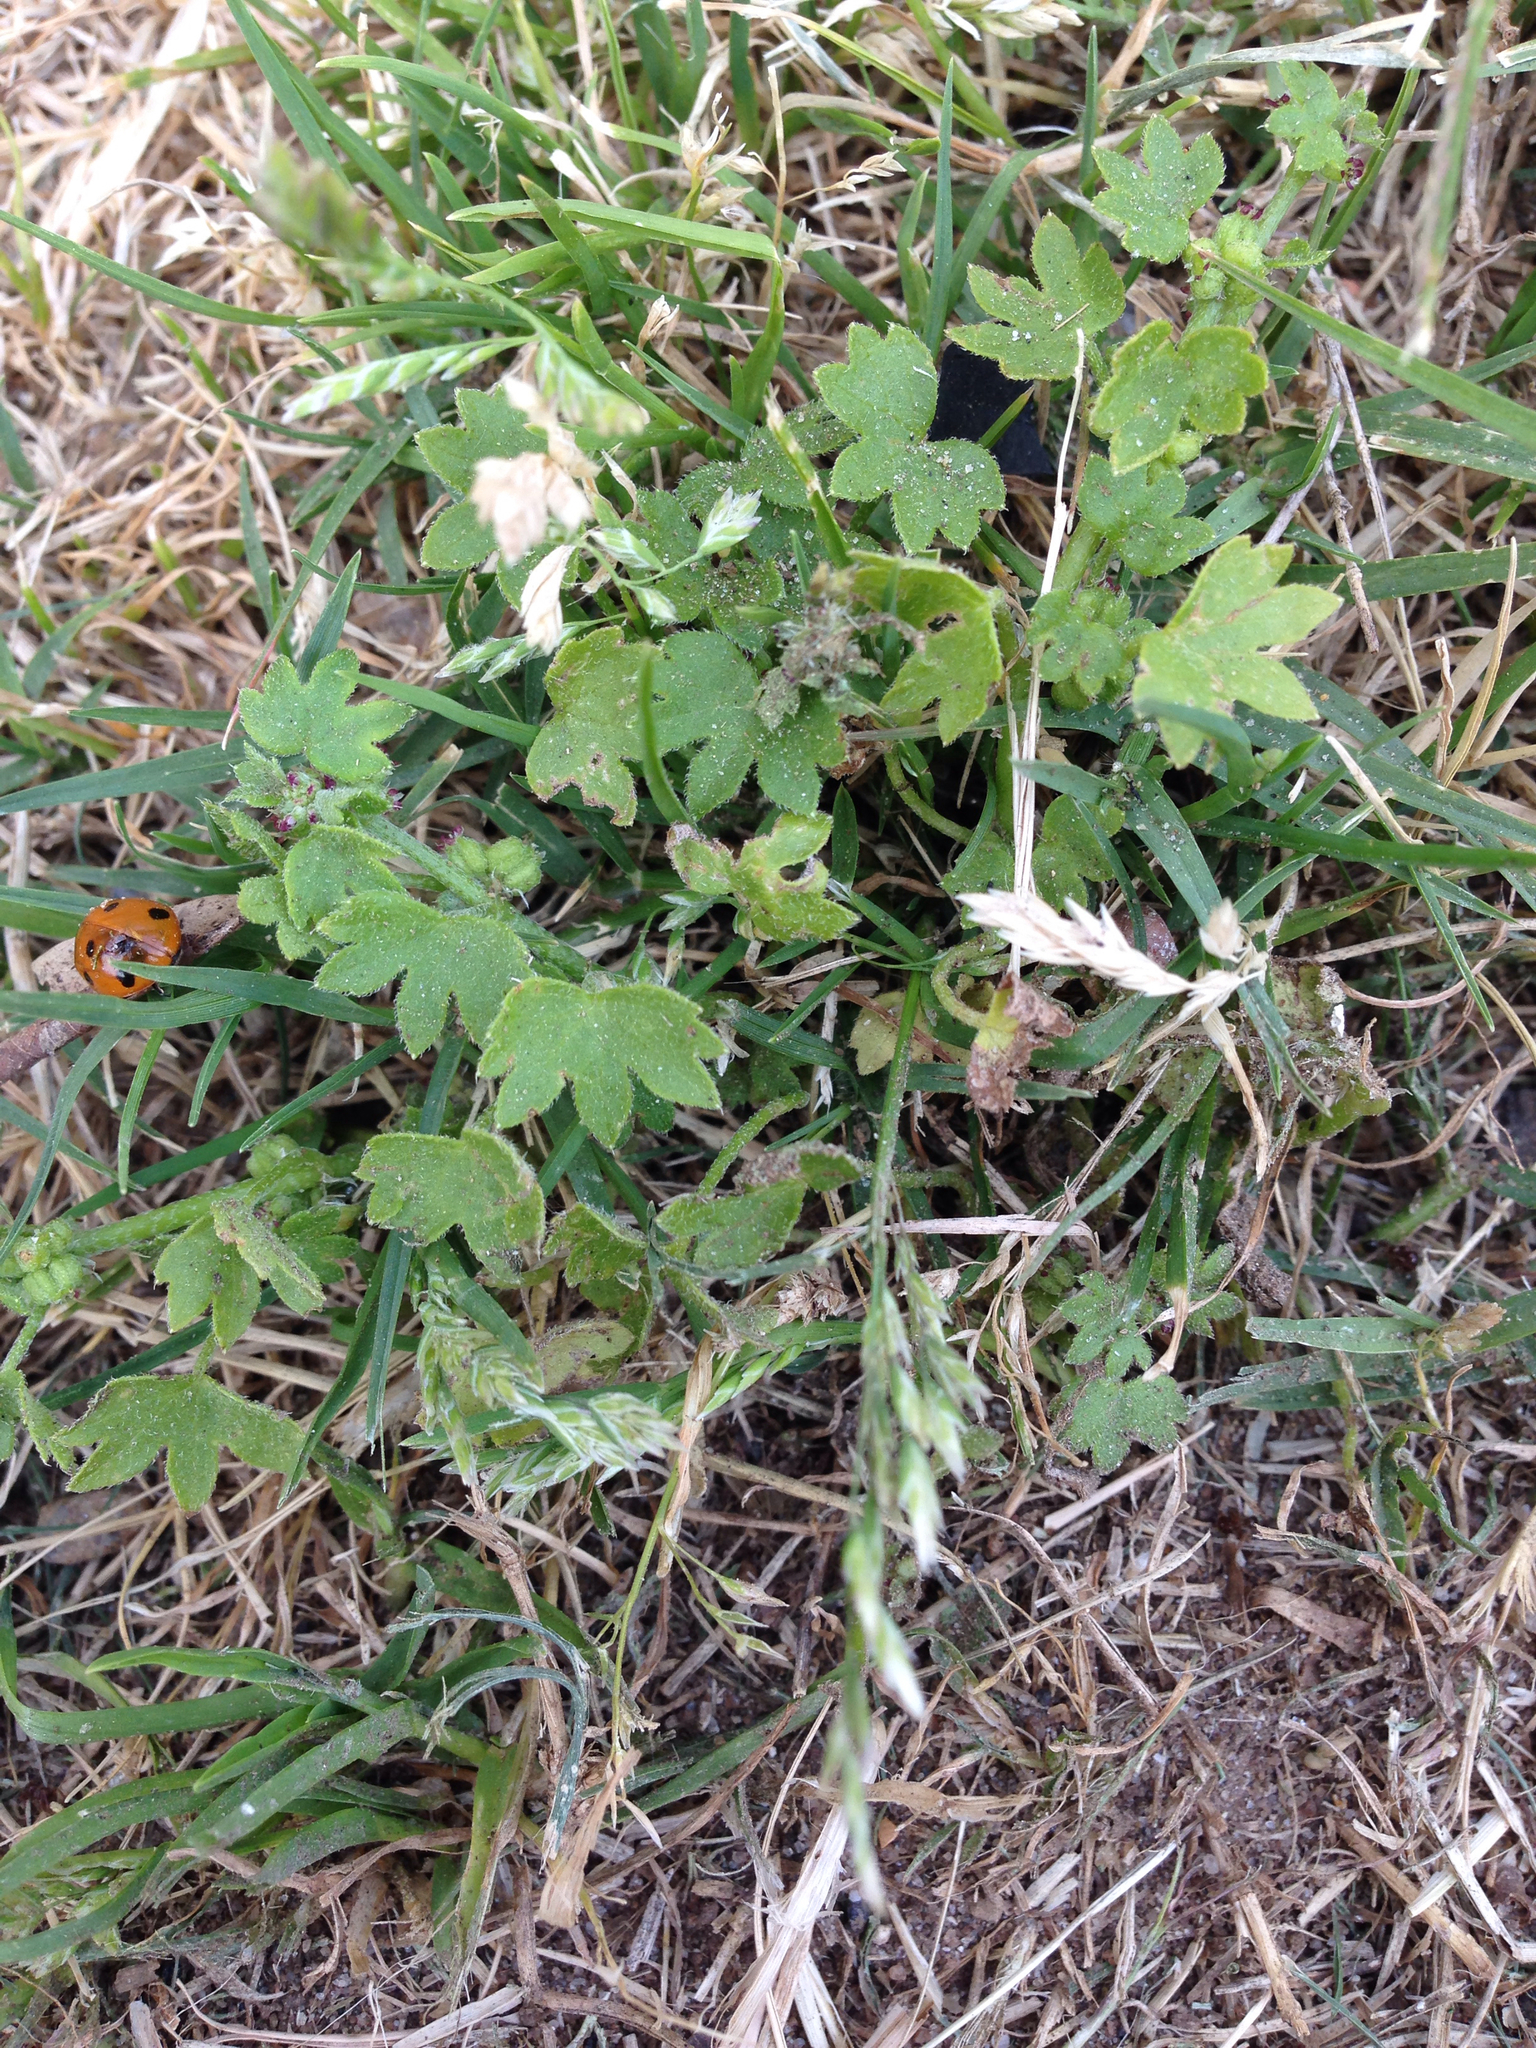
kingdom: Plantae
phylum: Tracheophyta
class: Magnoliopsida
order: Apiales
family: Apiaceae
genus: Bowlesia
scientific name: Bowlesia incana
